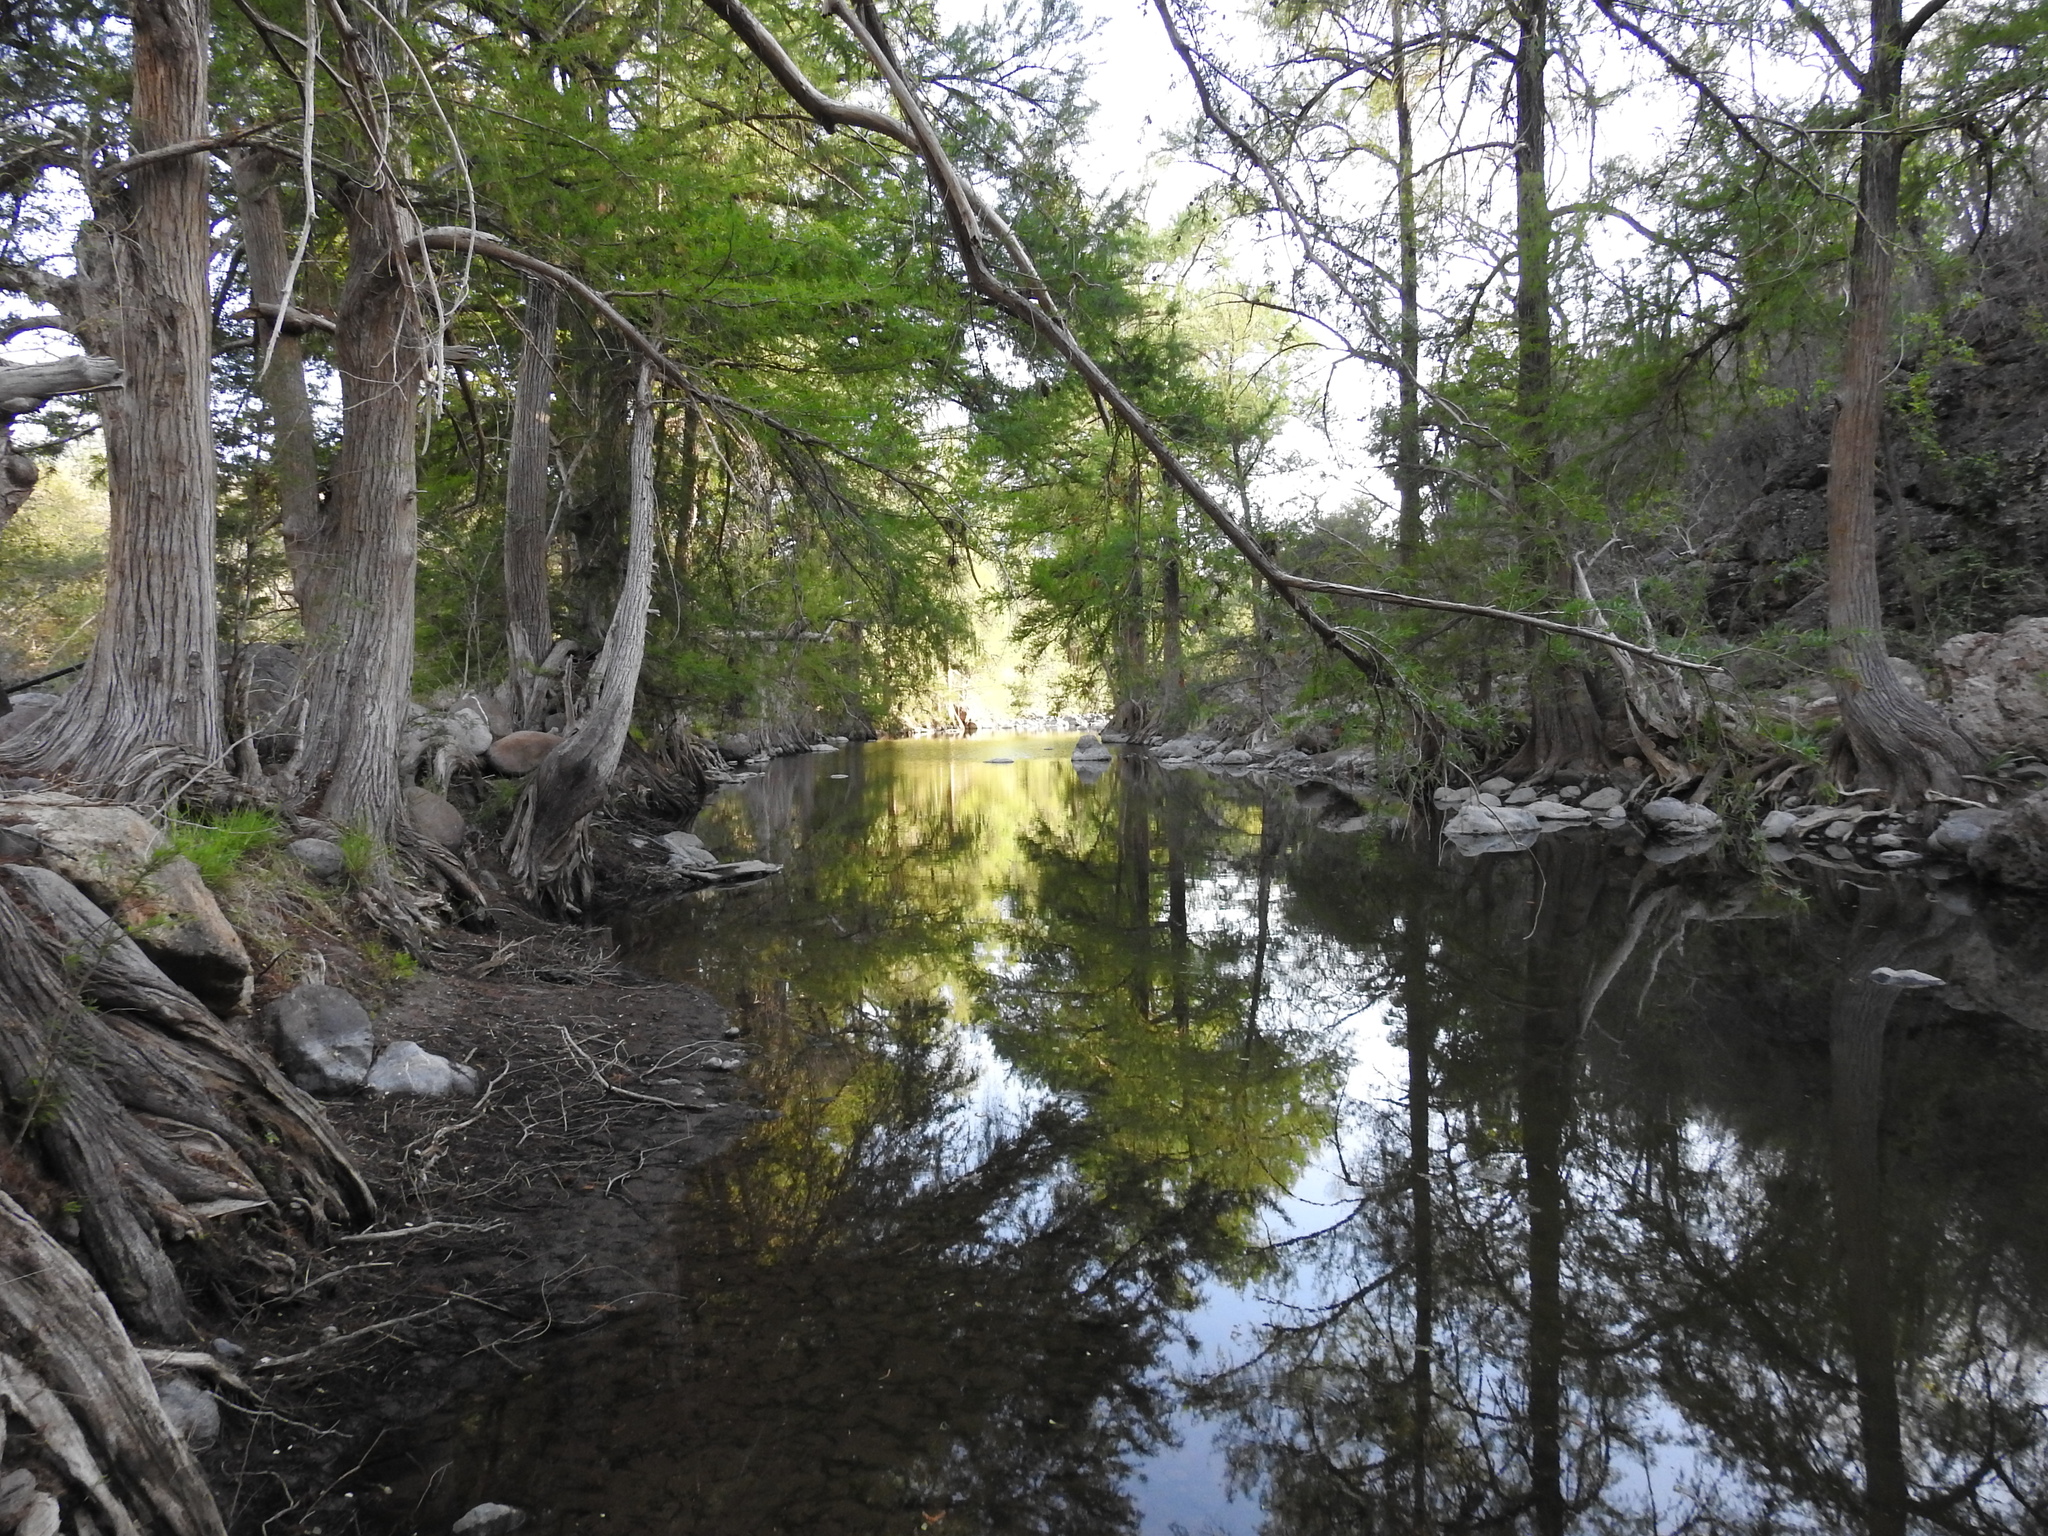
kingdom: Plantae
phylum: Tracheophyta
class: Pinopsida
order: Pinales
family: Cupressaceae
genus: Taxodium
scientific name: Taxodium mucronatum
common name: Montezume bald cypress
